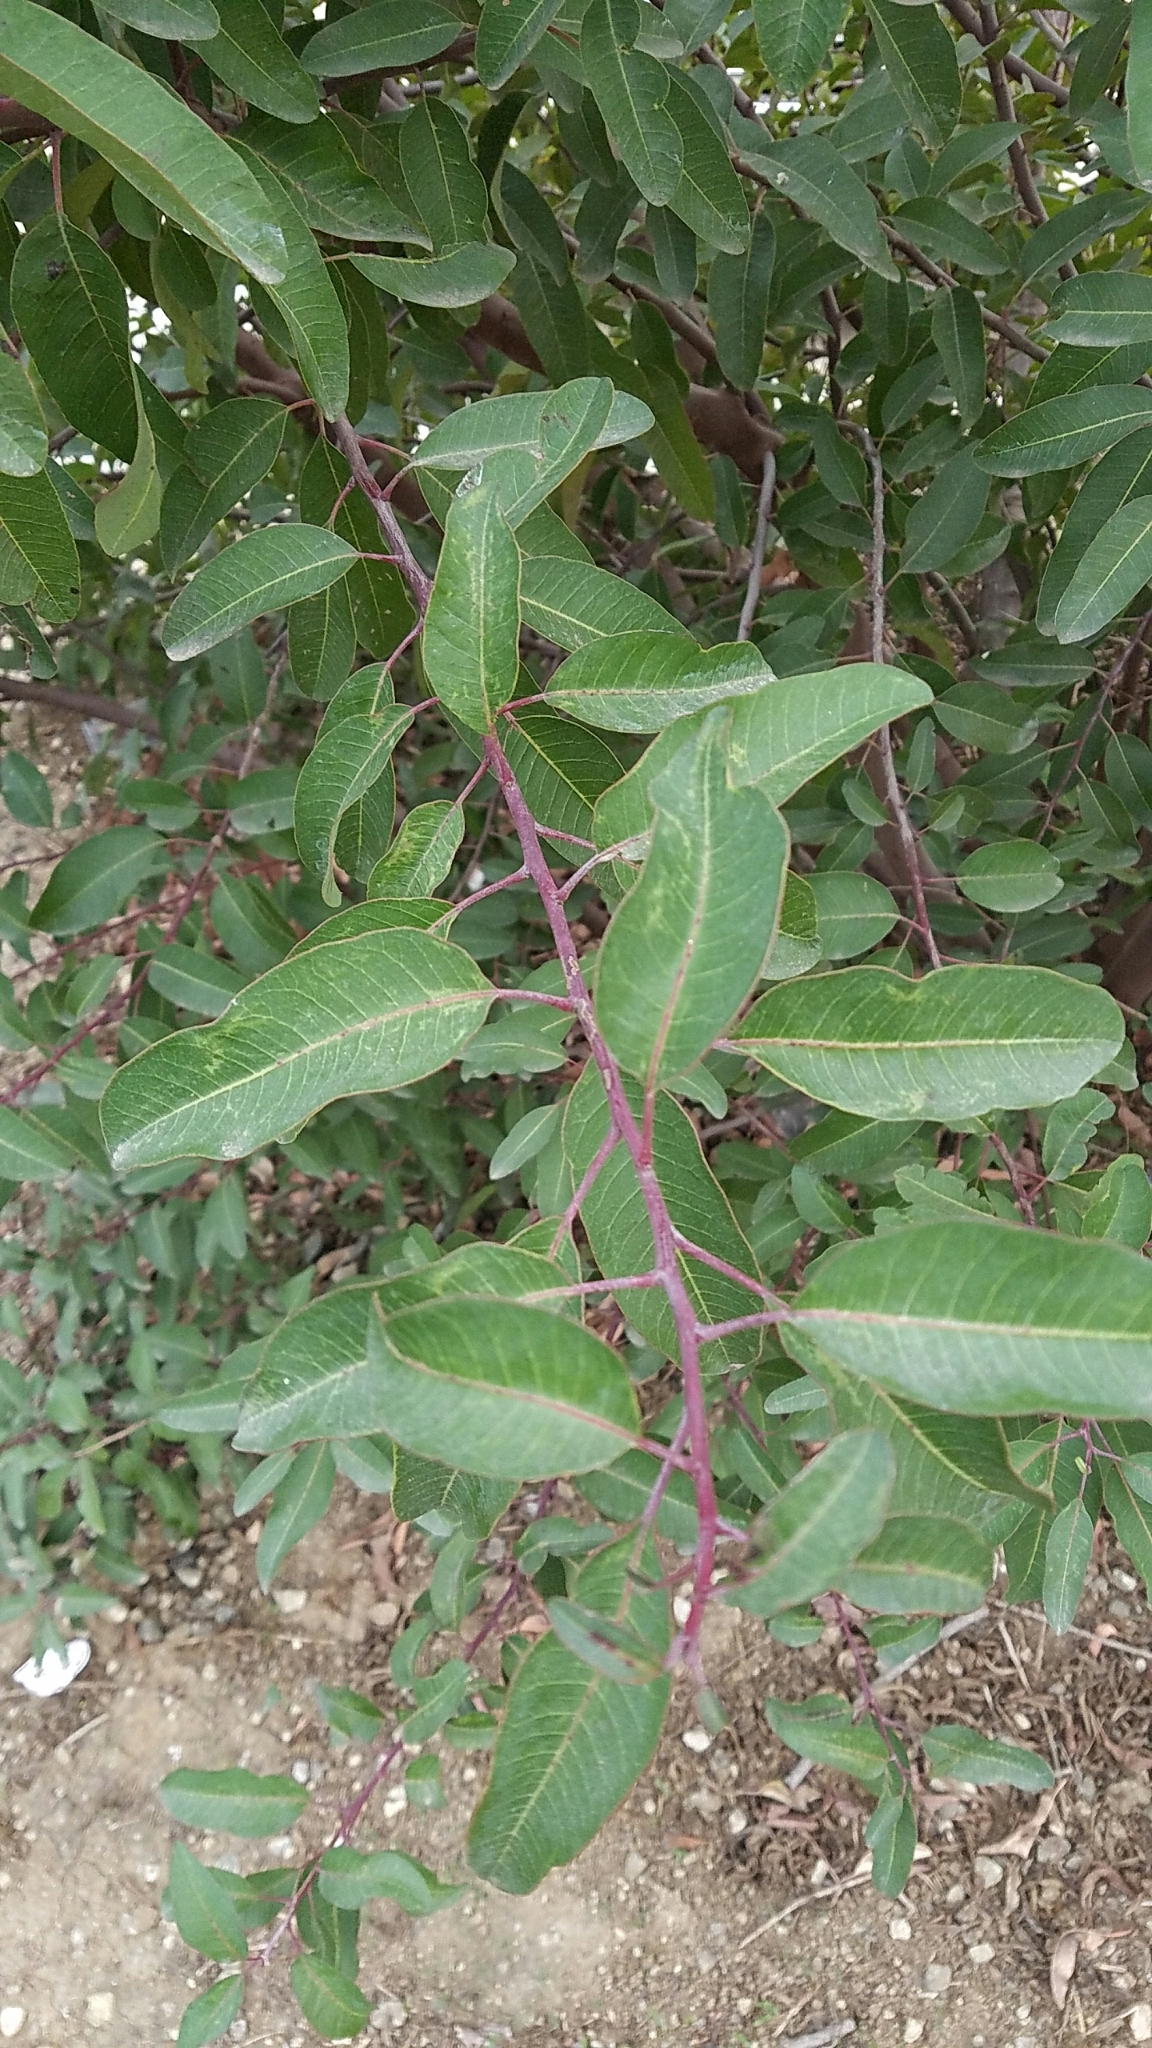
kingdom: Plantae
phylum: Tracheophyta
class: Magnoliopsida
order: Sapindales
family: Anacardiaceae
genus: Malosma
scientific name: Malosma laurina
